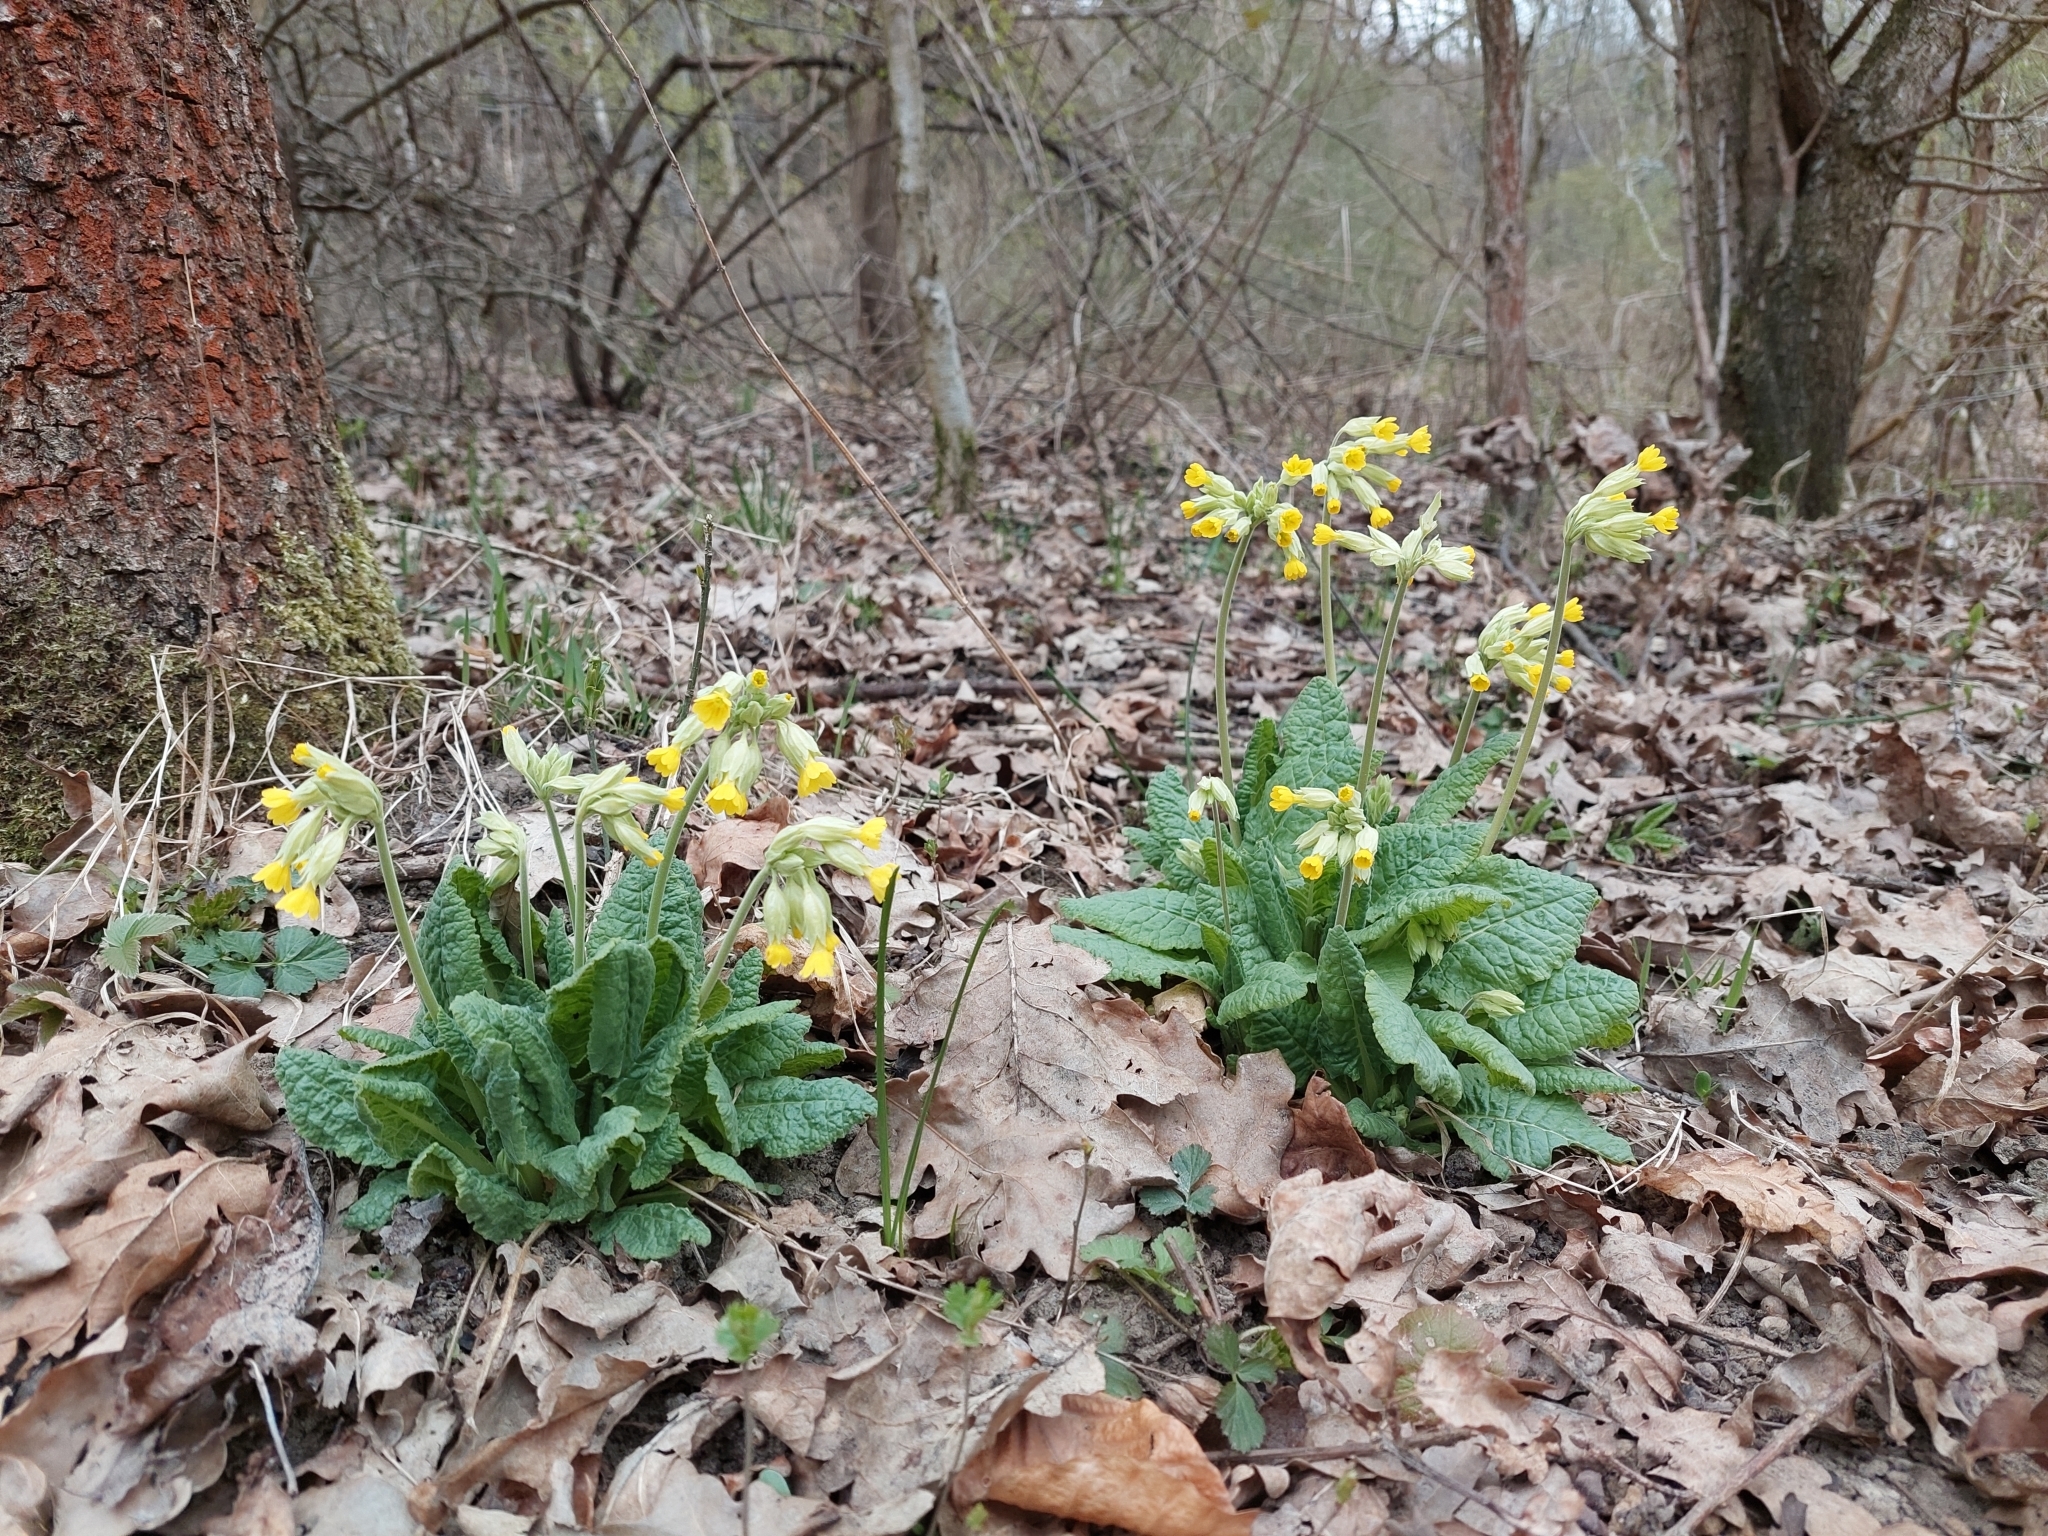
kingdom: Plantae
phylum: Tracheophyta
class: Magnoliopsida
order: Ericales
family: Primulaceae
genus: Primula
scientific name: Primula veris
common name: Cowslip
